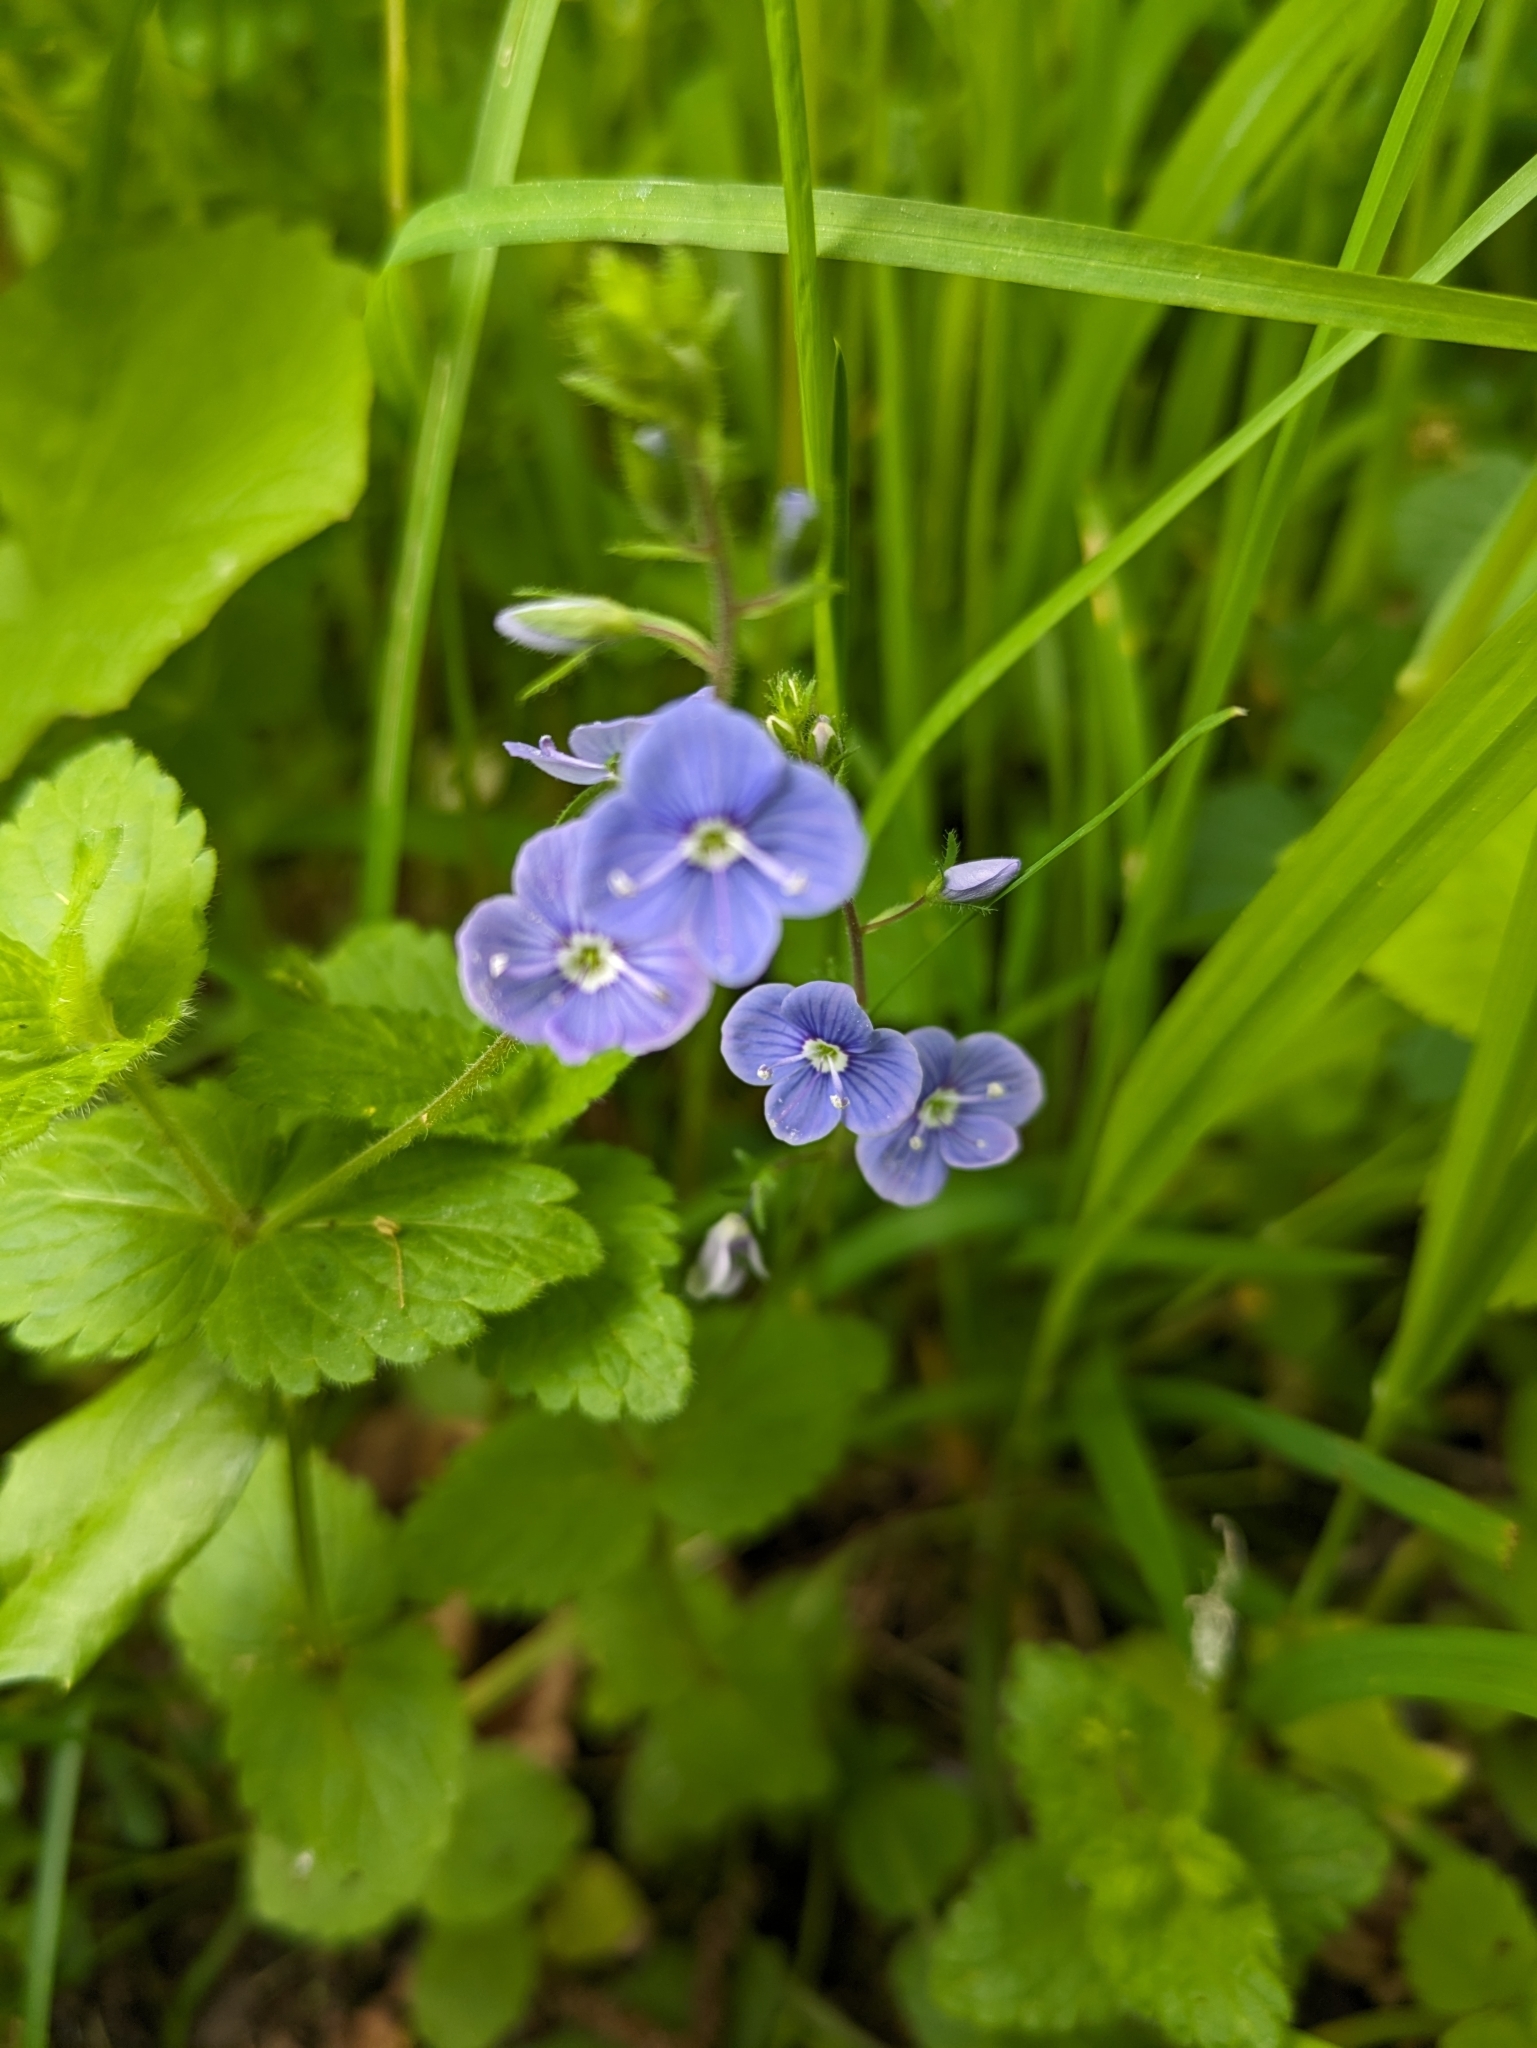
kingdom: Plantae
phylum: Tracheophyta
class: Magnoliopsida
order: Lamiales
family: Plantaginaceae
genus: Veronica
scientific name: Veronica chamaedrys
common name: Germander speedwell
